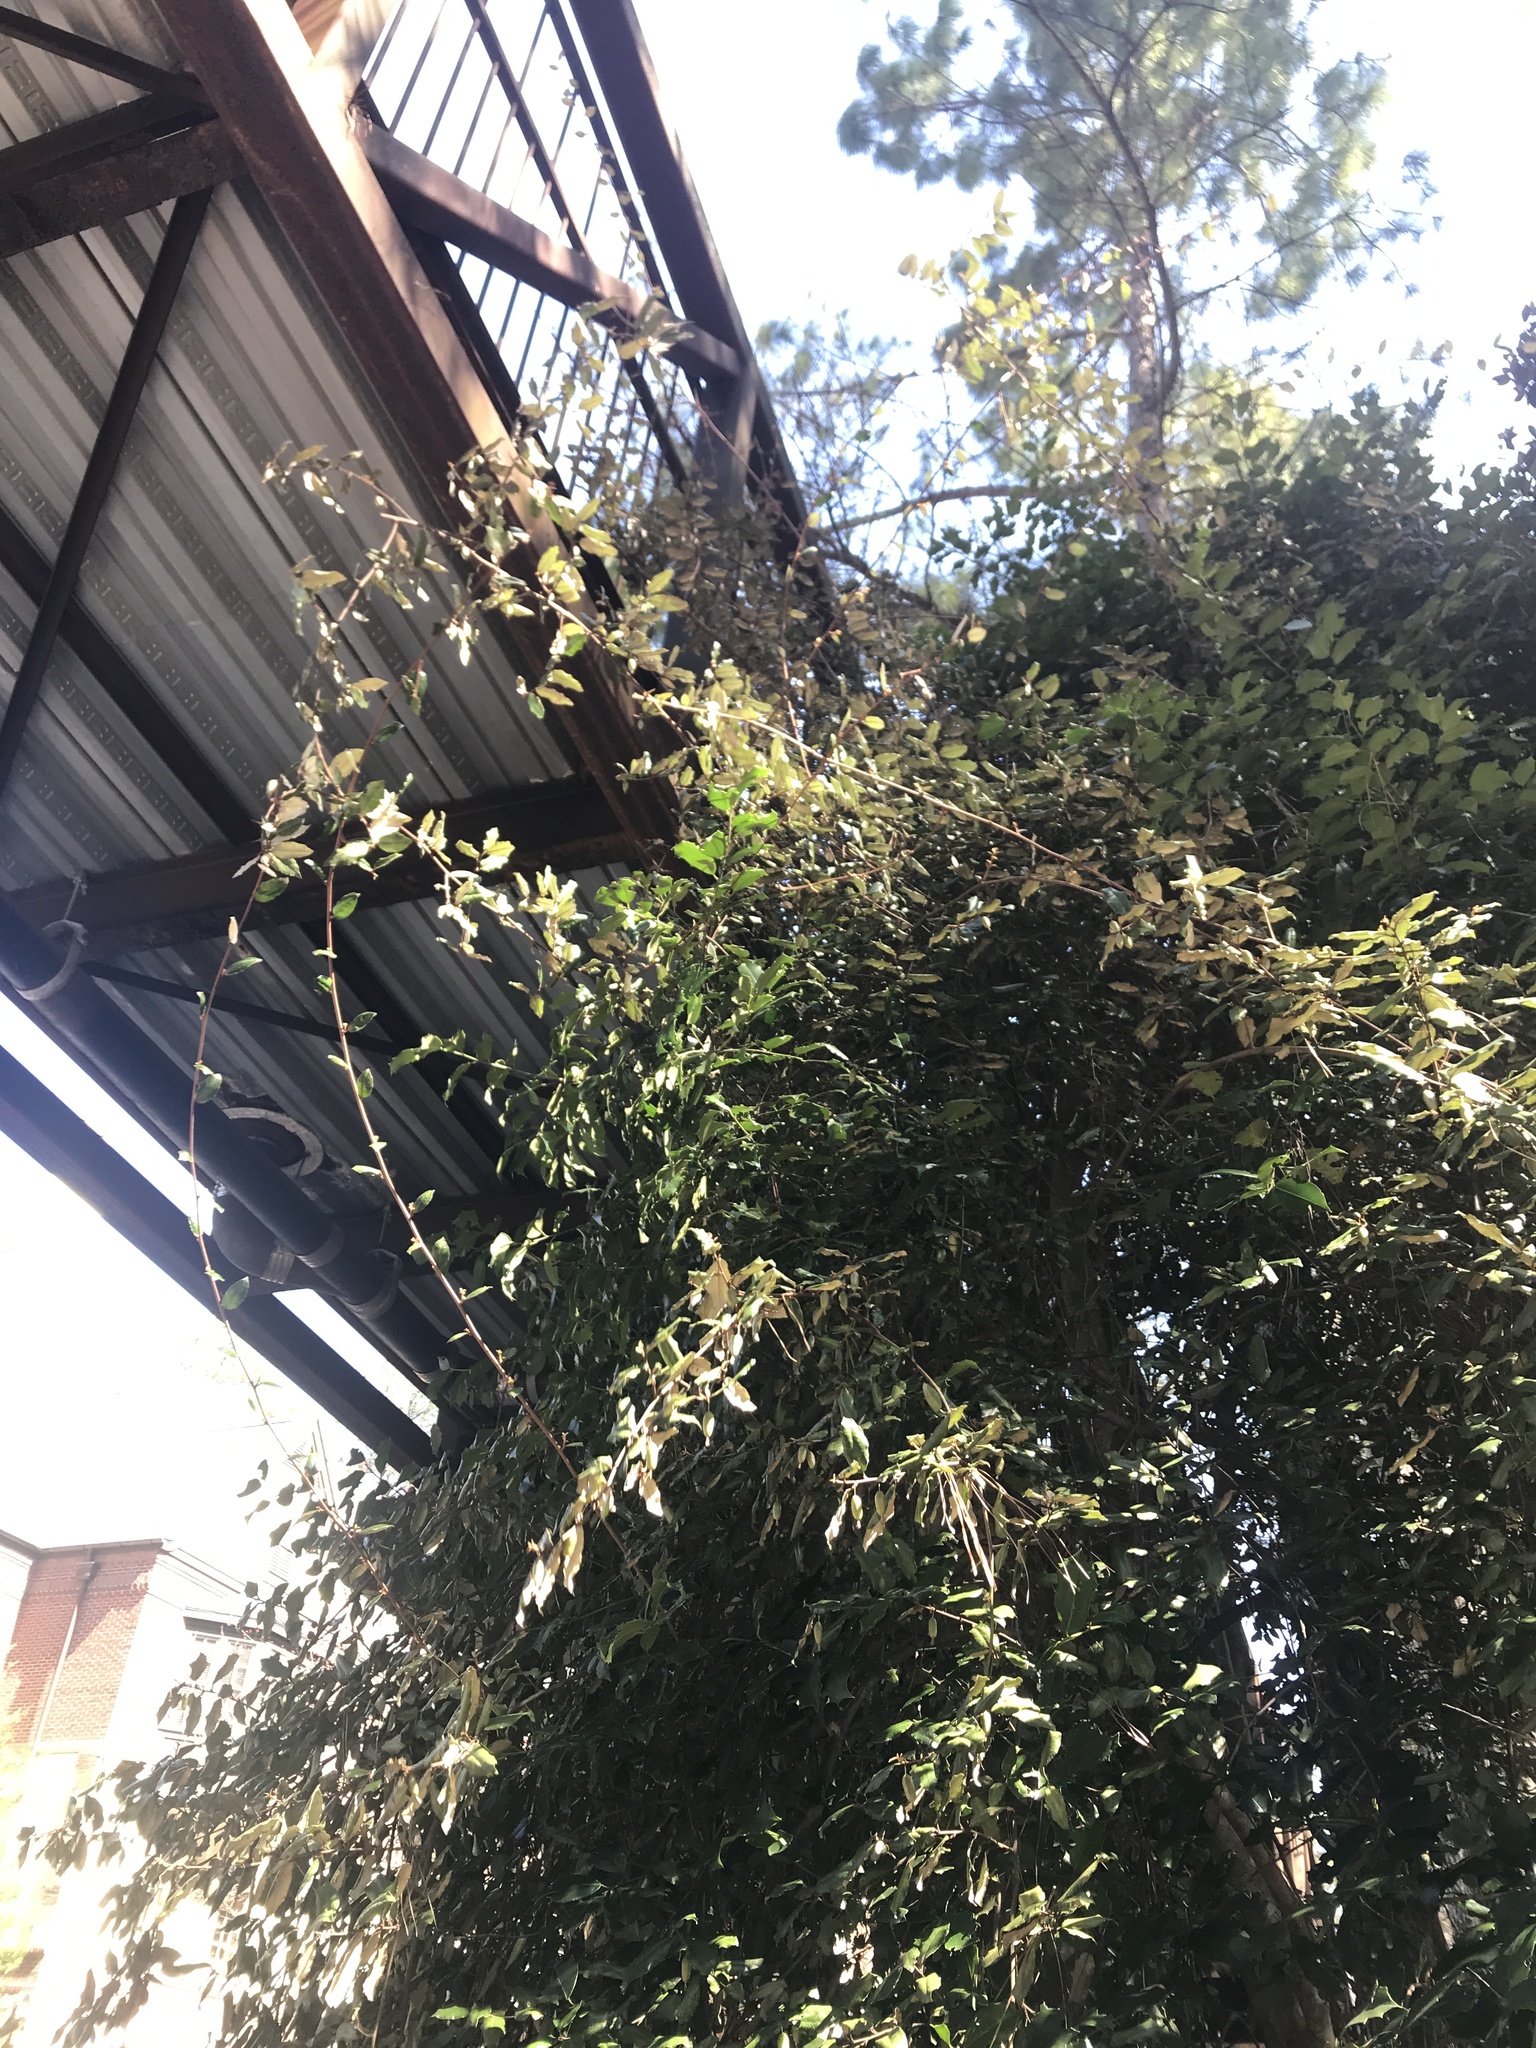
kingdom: Plantae
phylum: Tracheophyta
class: Magnoliopsida
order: Rosales
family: Elaeagnaceae
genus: Elaeagnus
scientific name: Elaeagnus pungens
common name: Spiny oleaster
